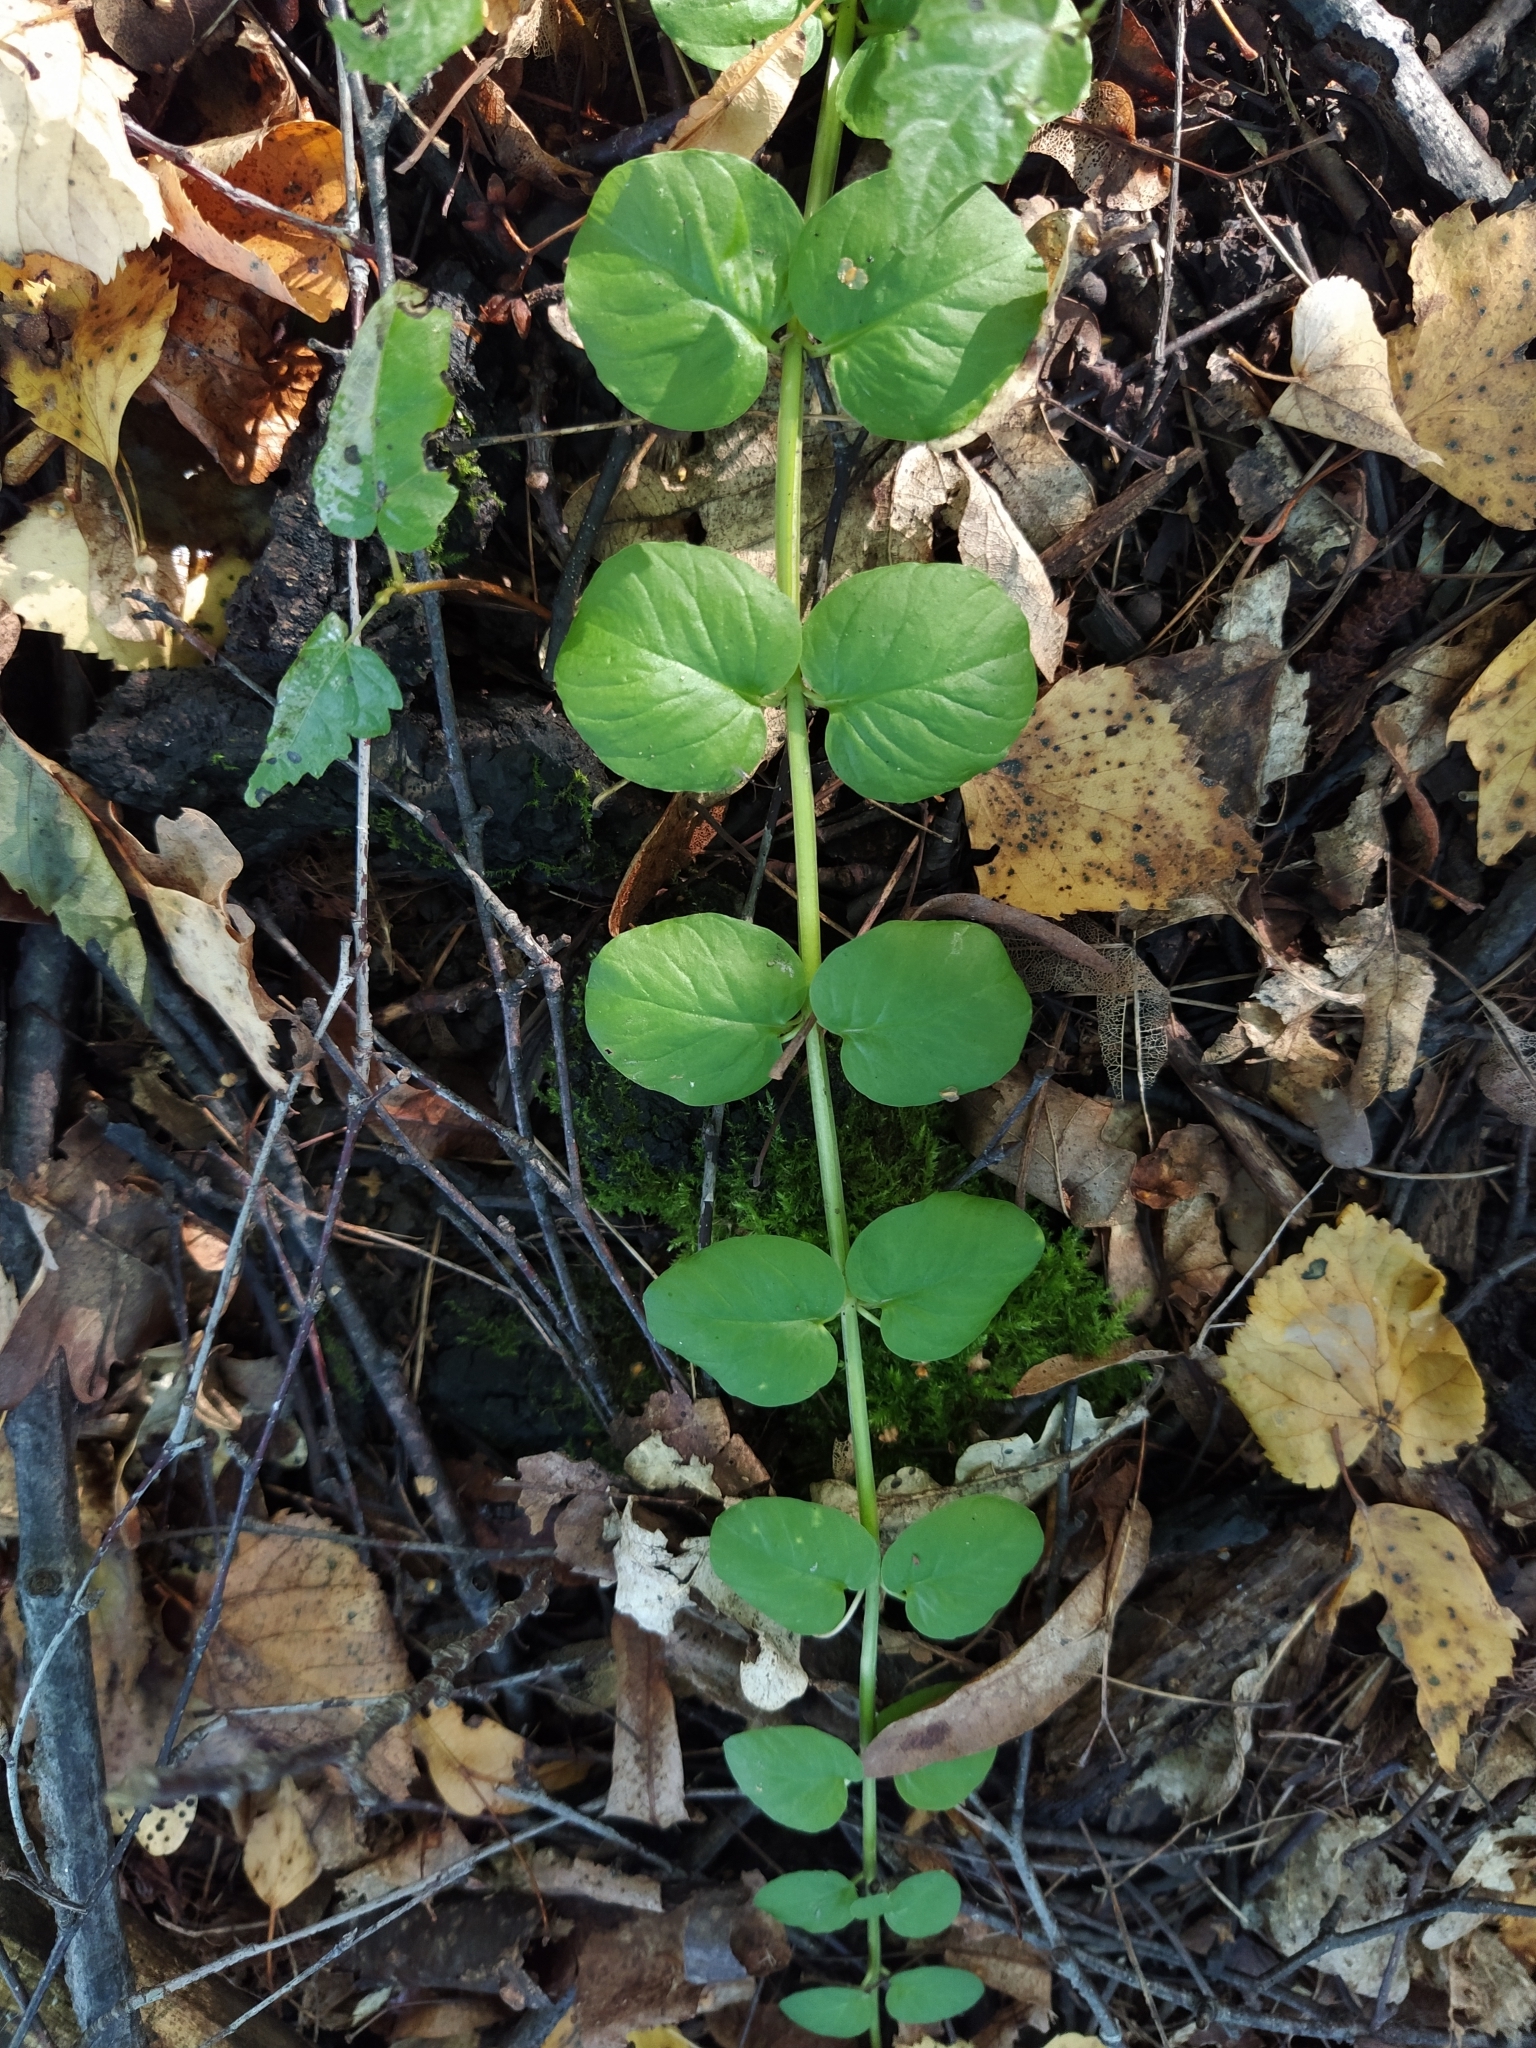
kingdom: Plantae
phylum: Tracheophyta
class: Magnoliopsida
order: Ericales
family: Primulaceae
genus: Lysimachia
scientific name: Lysimachia nummularia
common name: Moneywort
